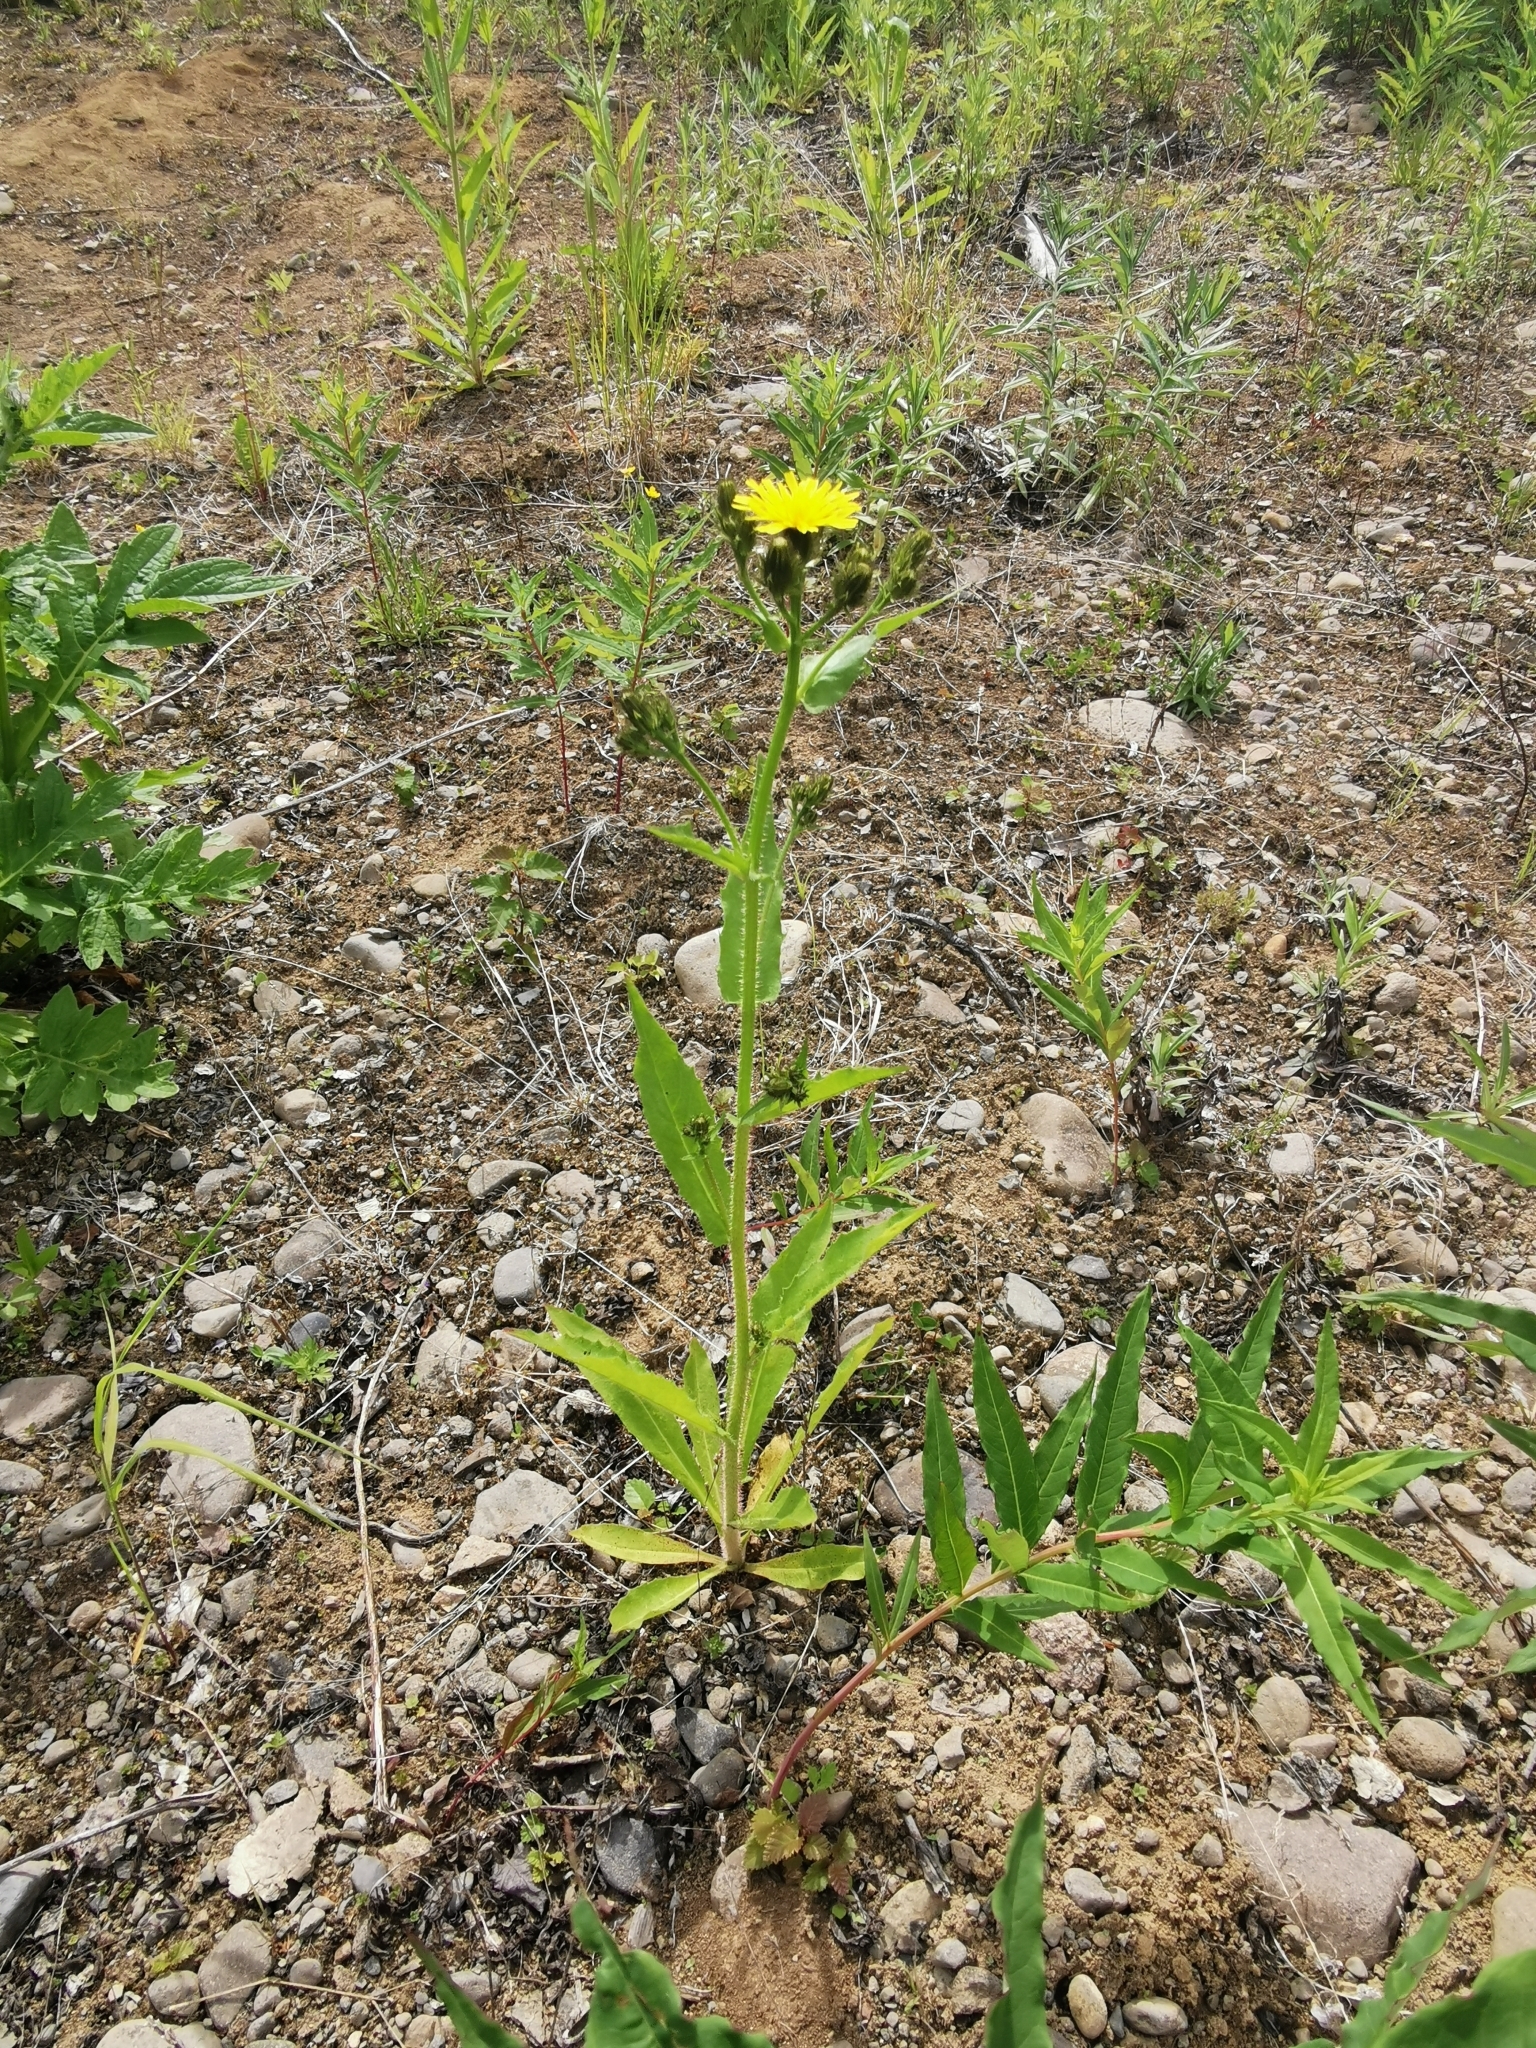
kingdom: Plantae
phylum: Tracheophyta
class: Magnoliopsida
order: Asterales
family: Asteraceae
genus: Picris
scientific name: Picris japonica
